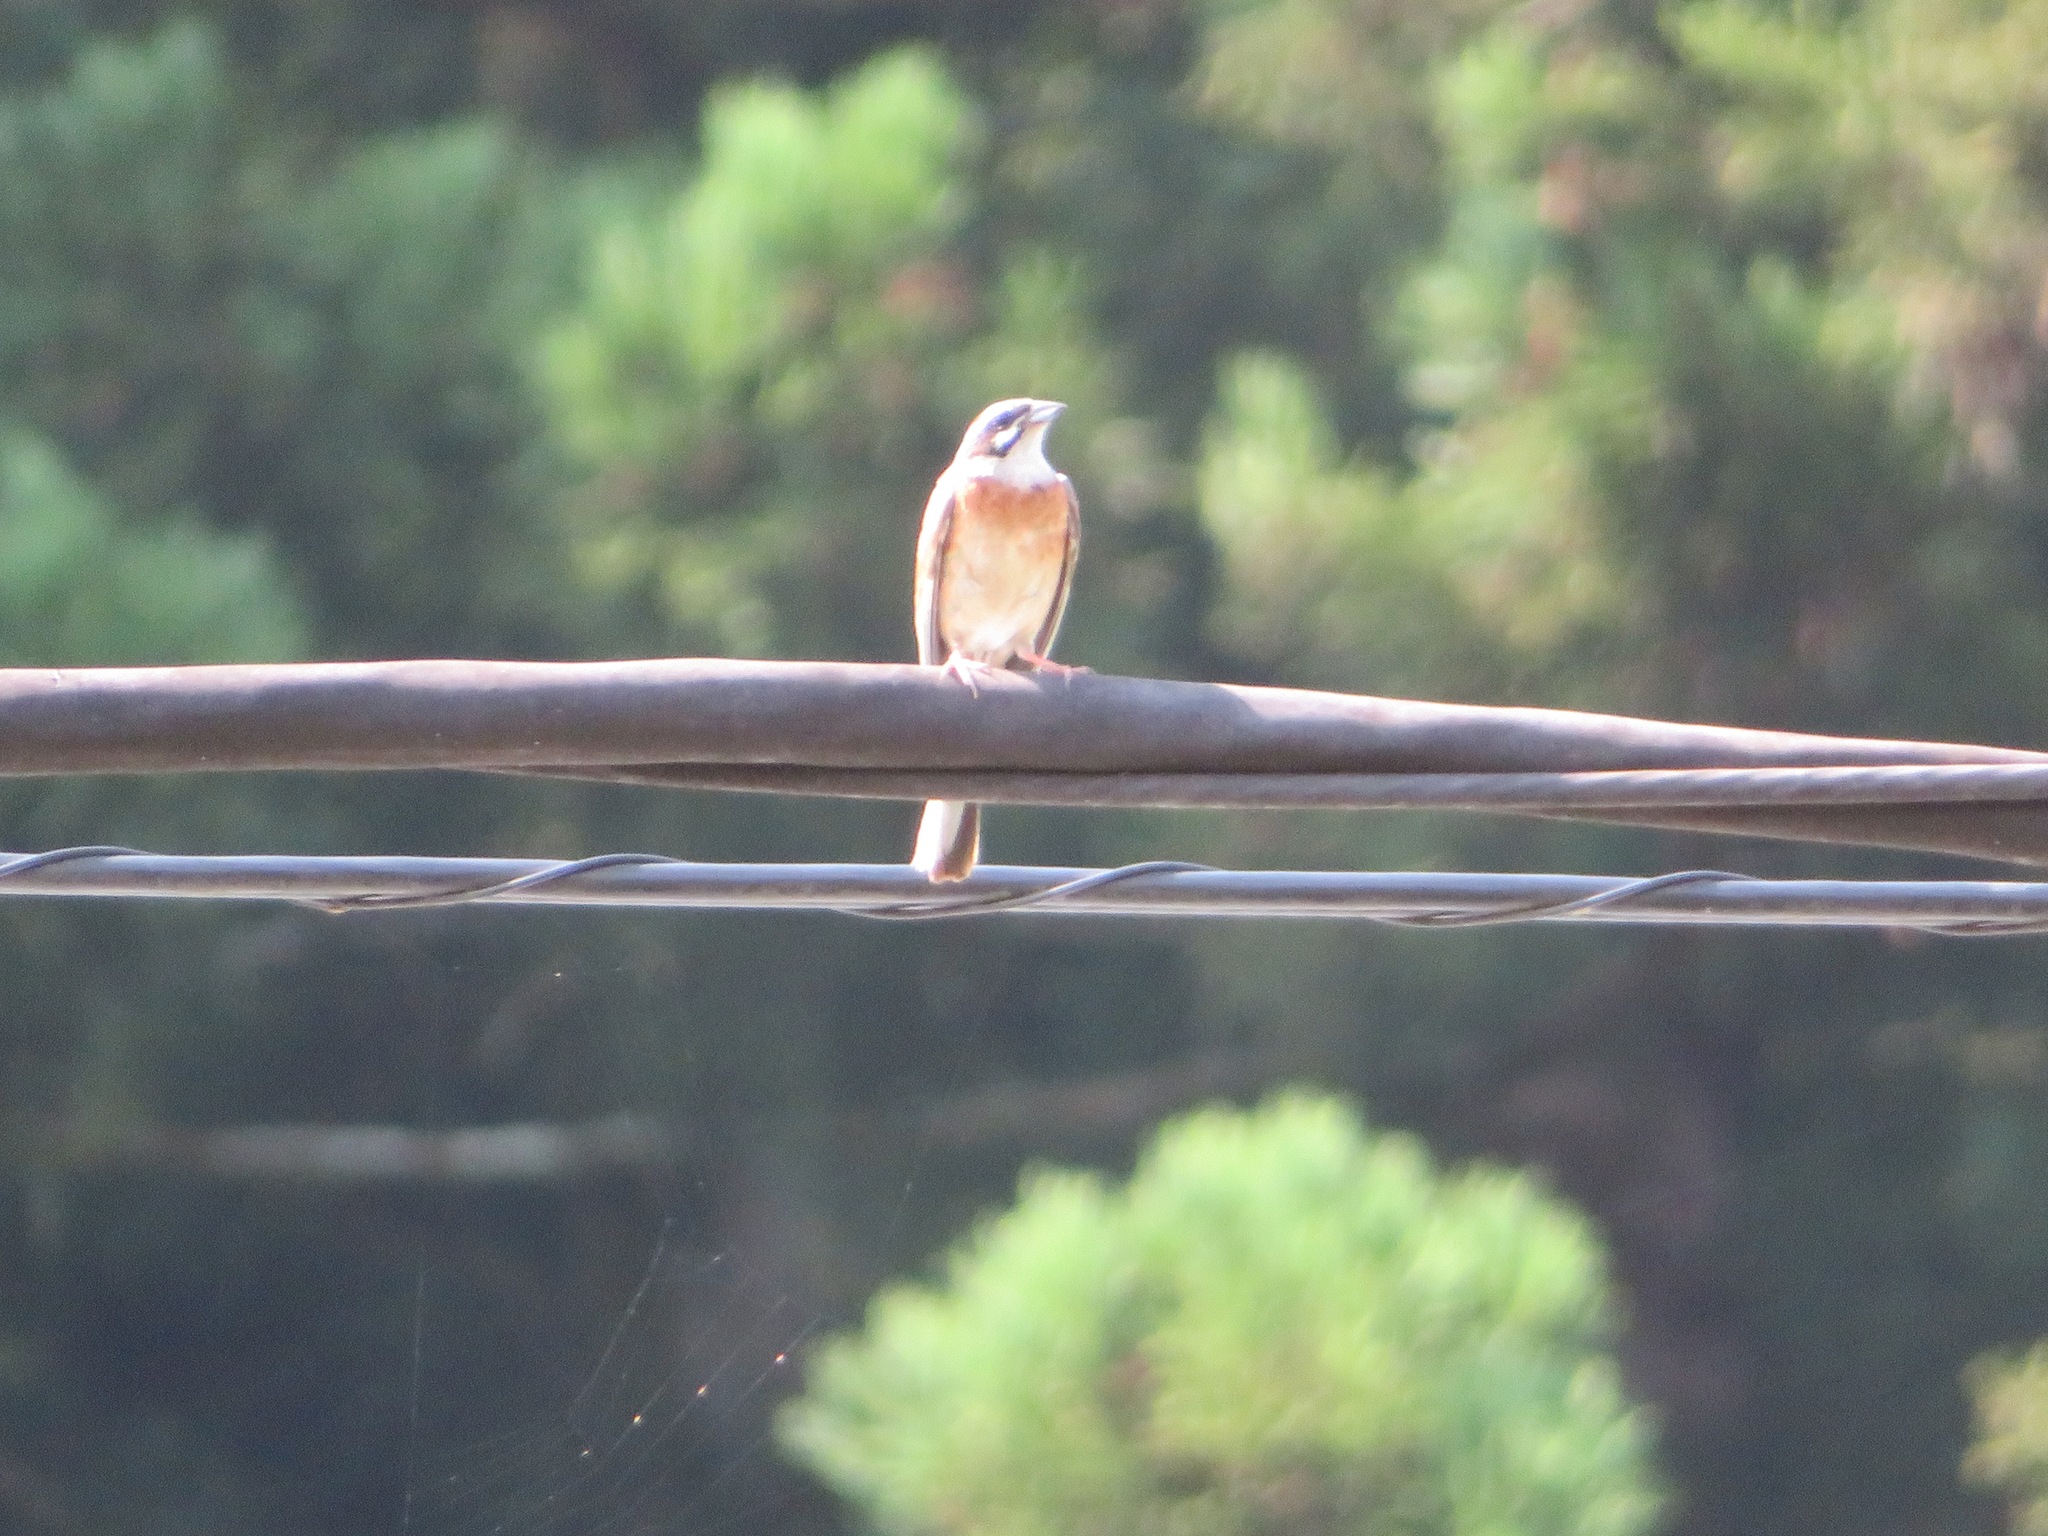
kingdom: Animalia
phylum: Chordata
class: Aves
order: Passeriformes
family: Emberizidae
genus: Emberiza
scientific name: Emberiza cioides
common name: Meadow bunting
